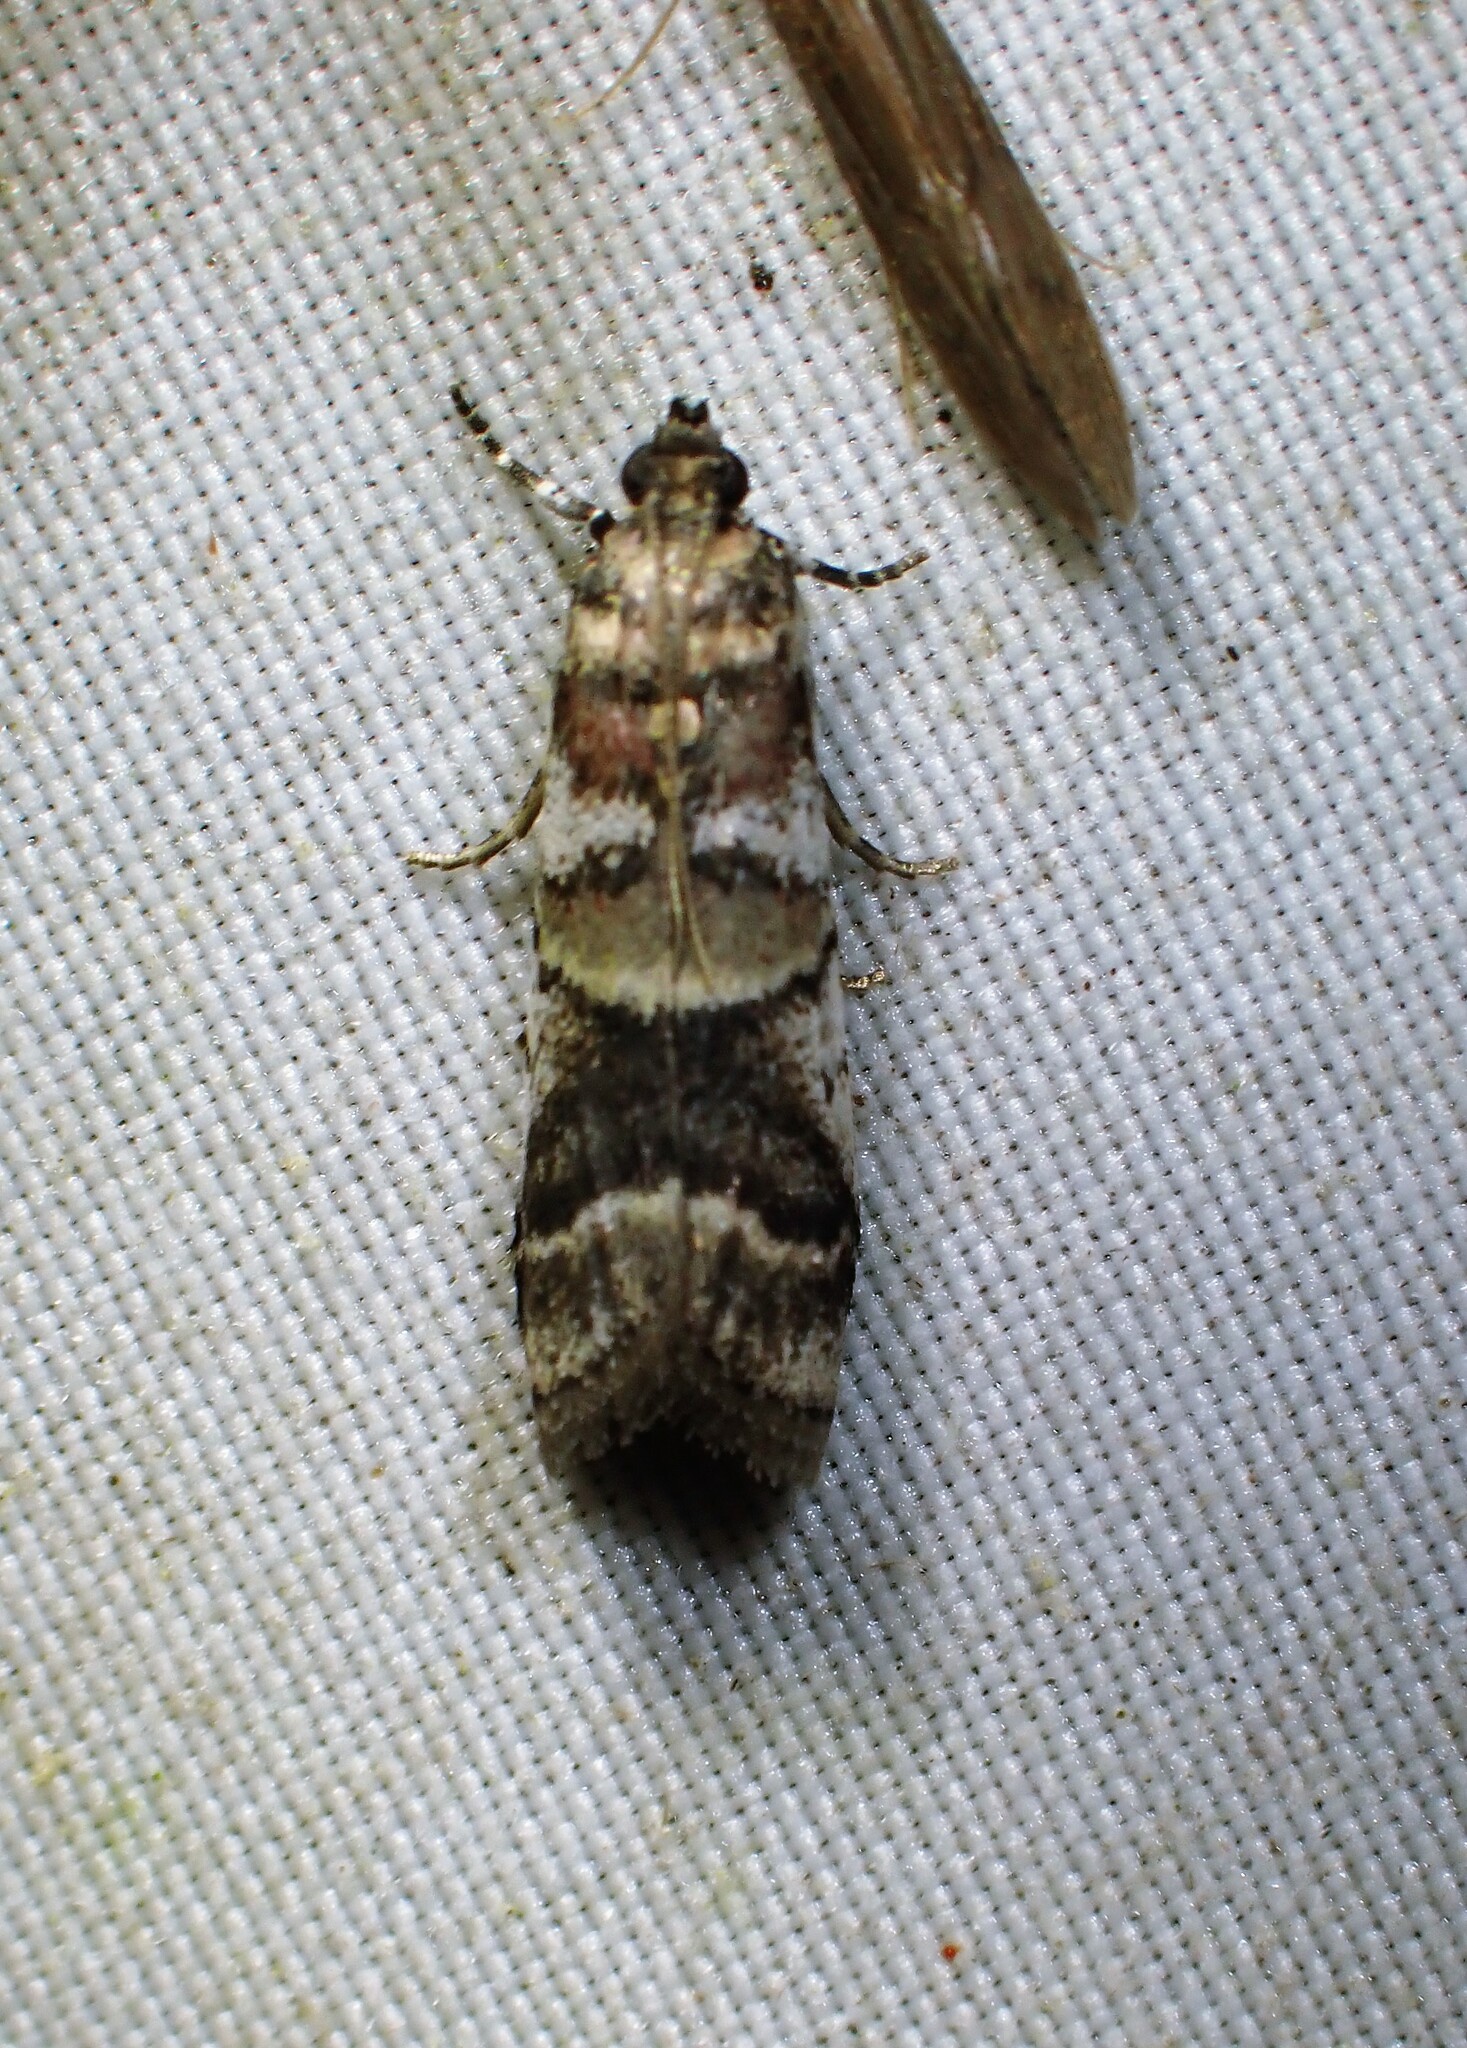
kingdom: Animalia
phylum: Arthropoda
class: Insecta
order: Lepidoptera
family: Pyralidae
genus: Acrobasis
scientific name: Acrobasis indigenella
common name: Leaf crumpler moth
